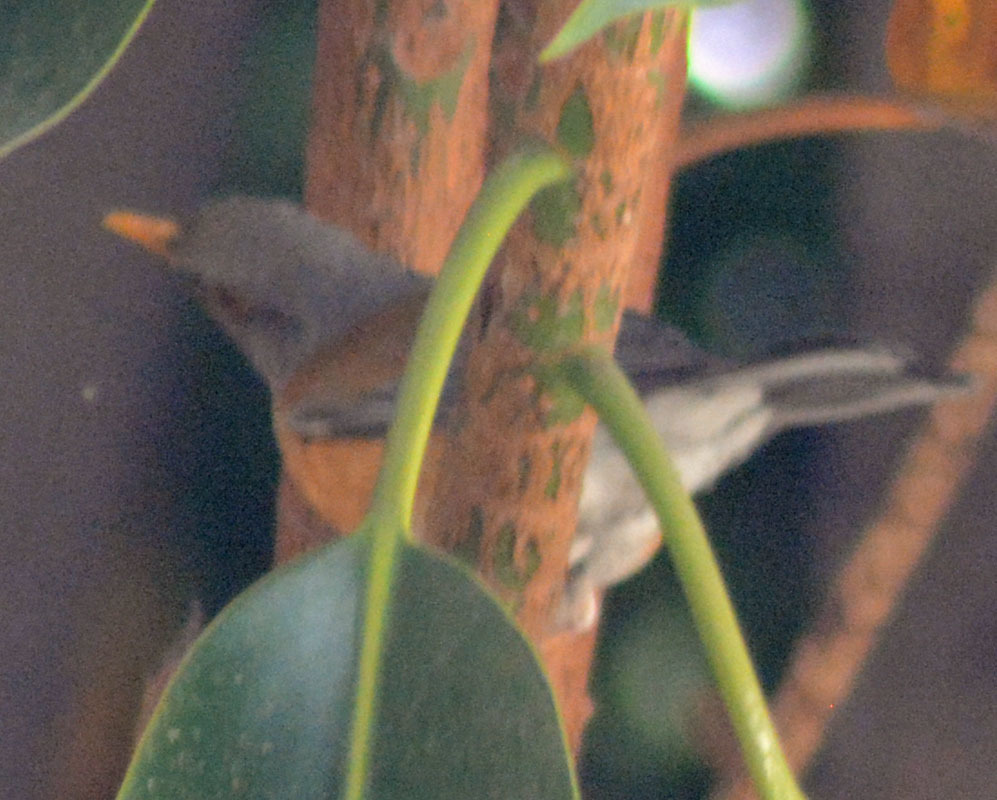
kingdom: Animalia
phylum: Chordata
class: Aves
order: Passeriformes
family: Turdidae
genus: Turdus
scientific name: Turdus rufopalliatus
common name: Rufous-backed robin
